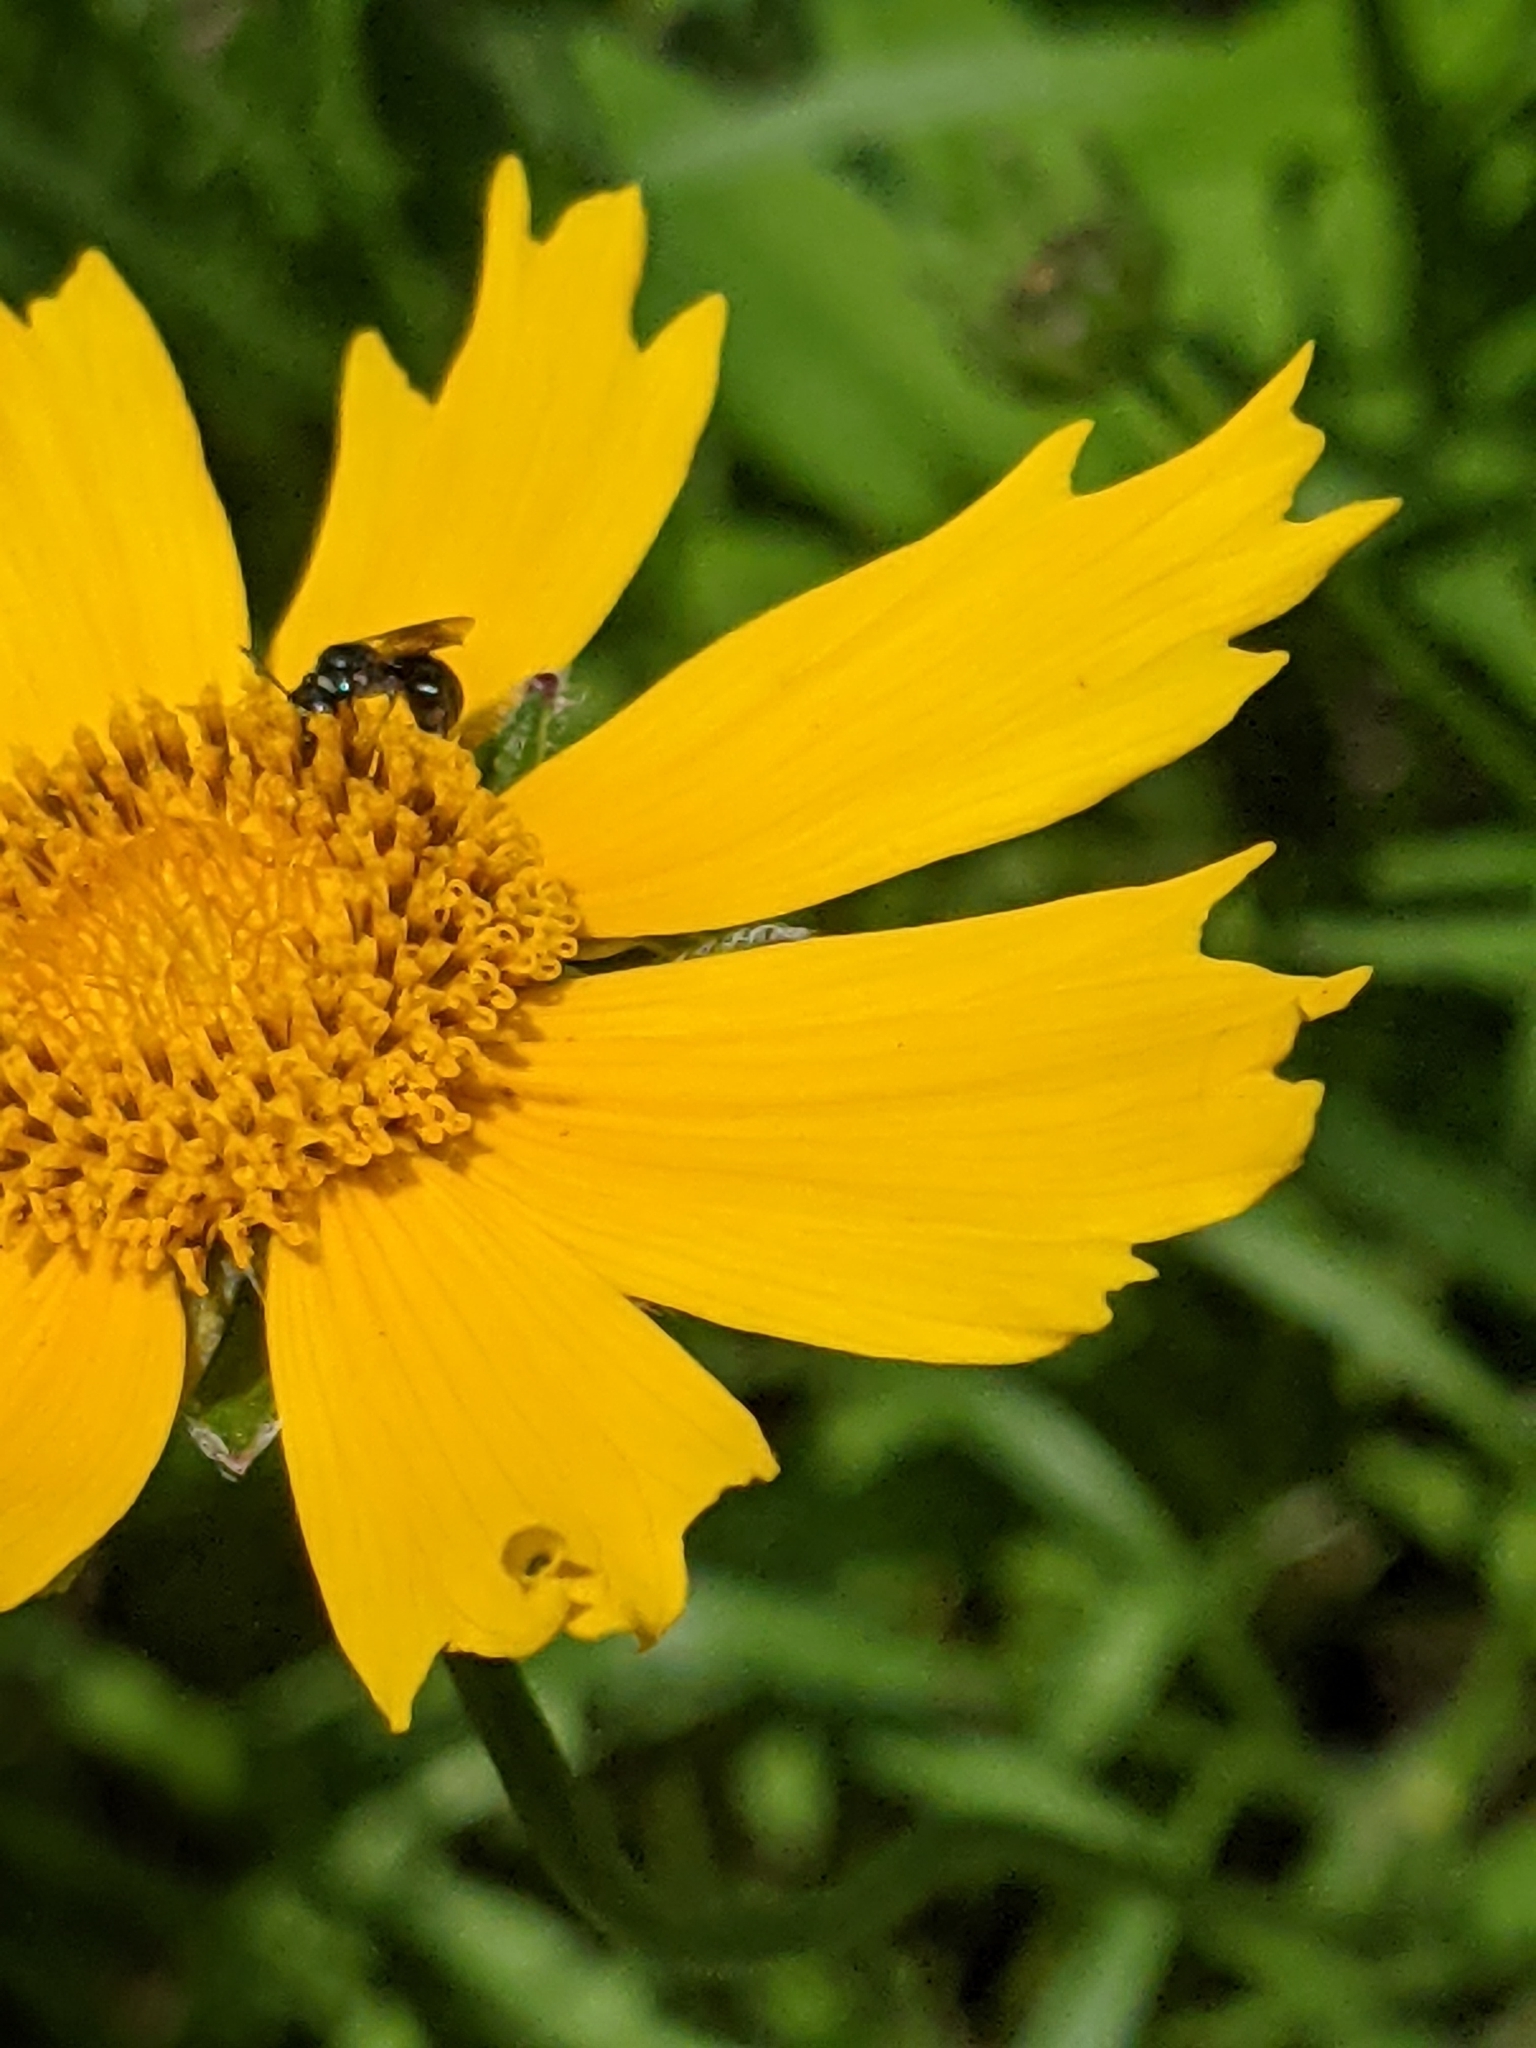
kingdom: Animalia
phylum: Arthropoda
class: Insecta
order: Hymenoptera
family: Apidae
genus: Zadontomerus
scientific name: Zadontomerus
